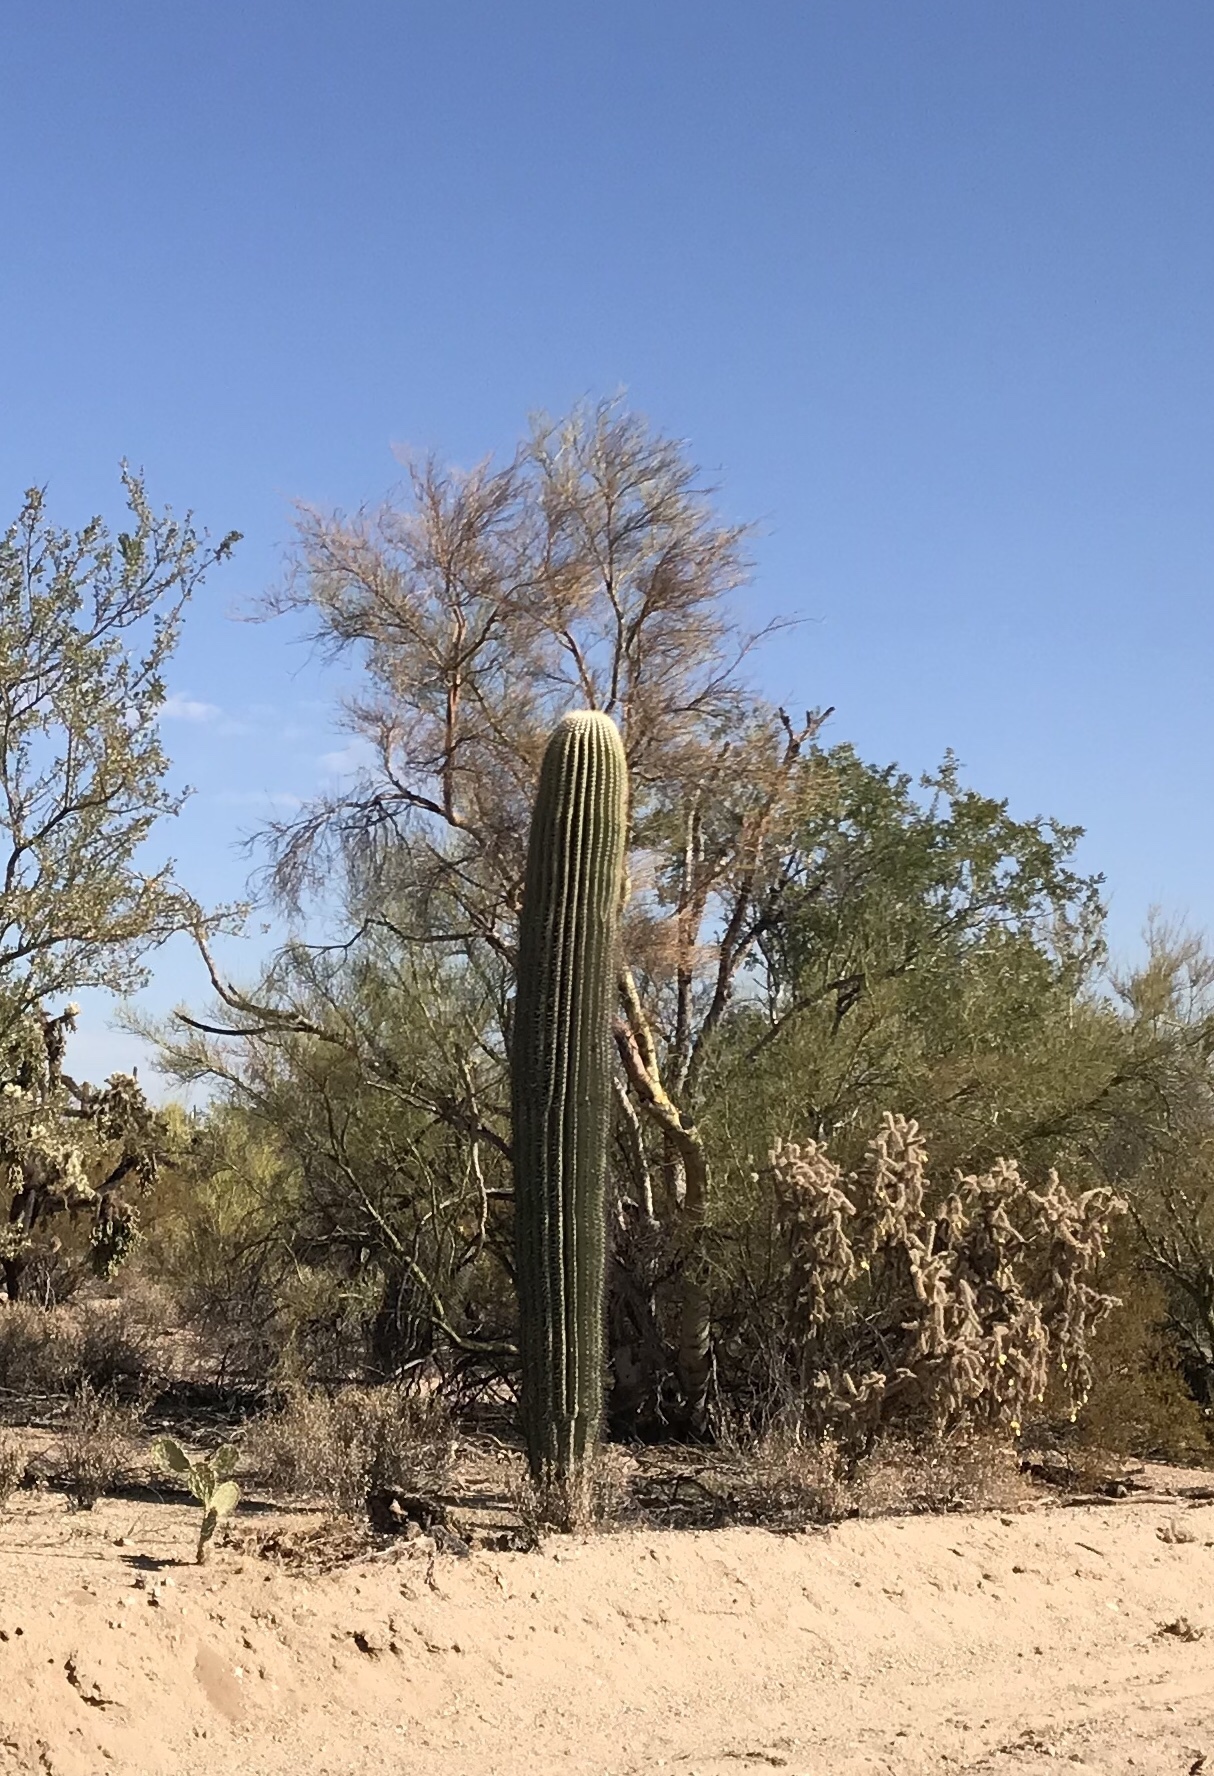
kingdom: Plantae
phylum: Tracheophyta
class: Magnoliopsida
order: Caryophyllales
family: Cactaceae
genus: Carnegiea
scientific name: Carnegiea gigantea
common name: Saguaro
